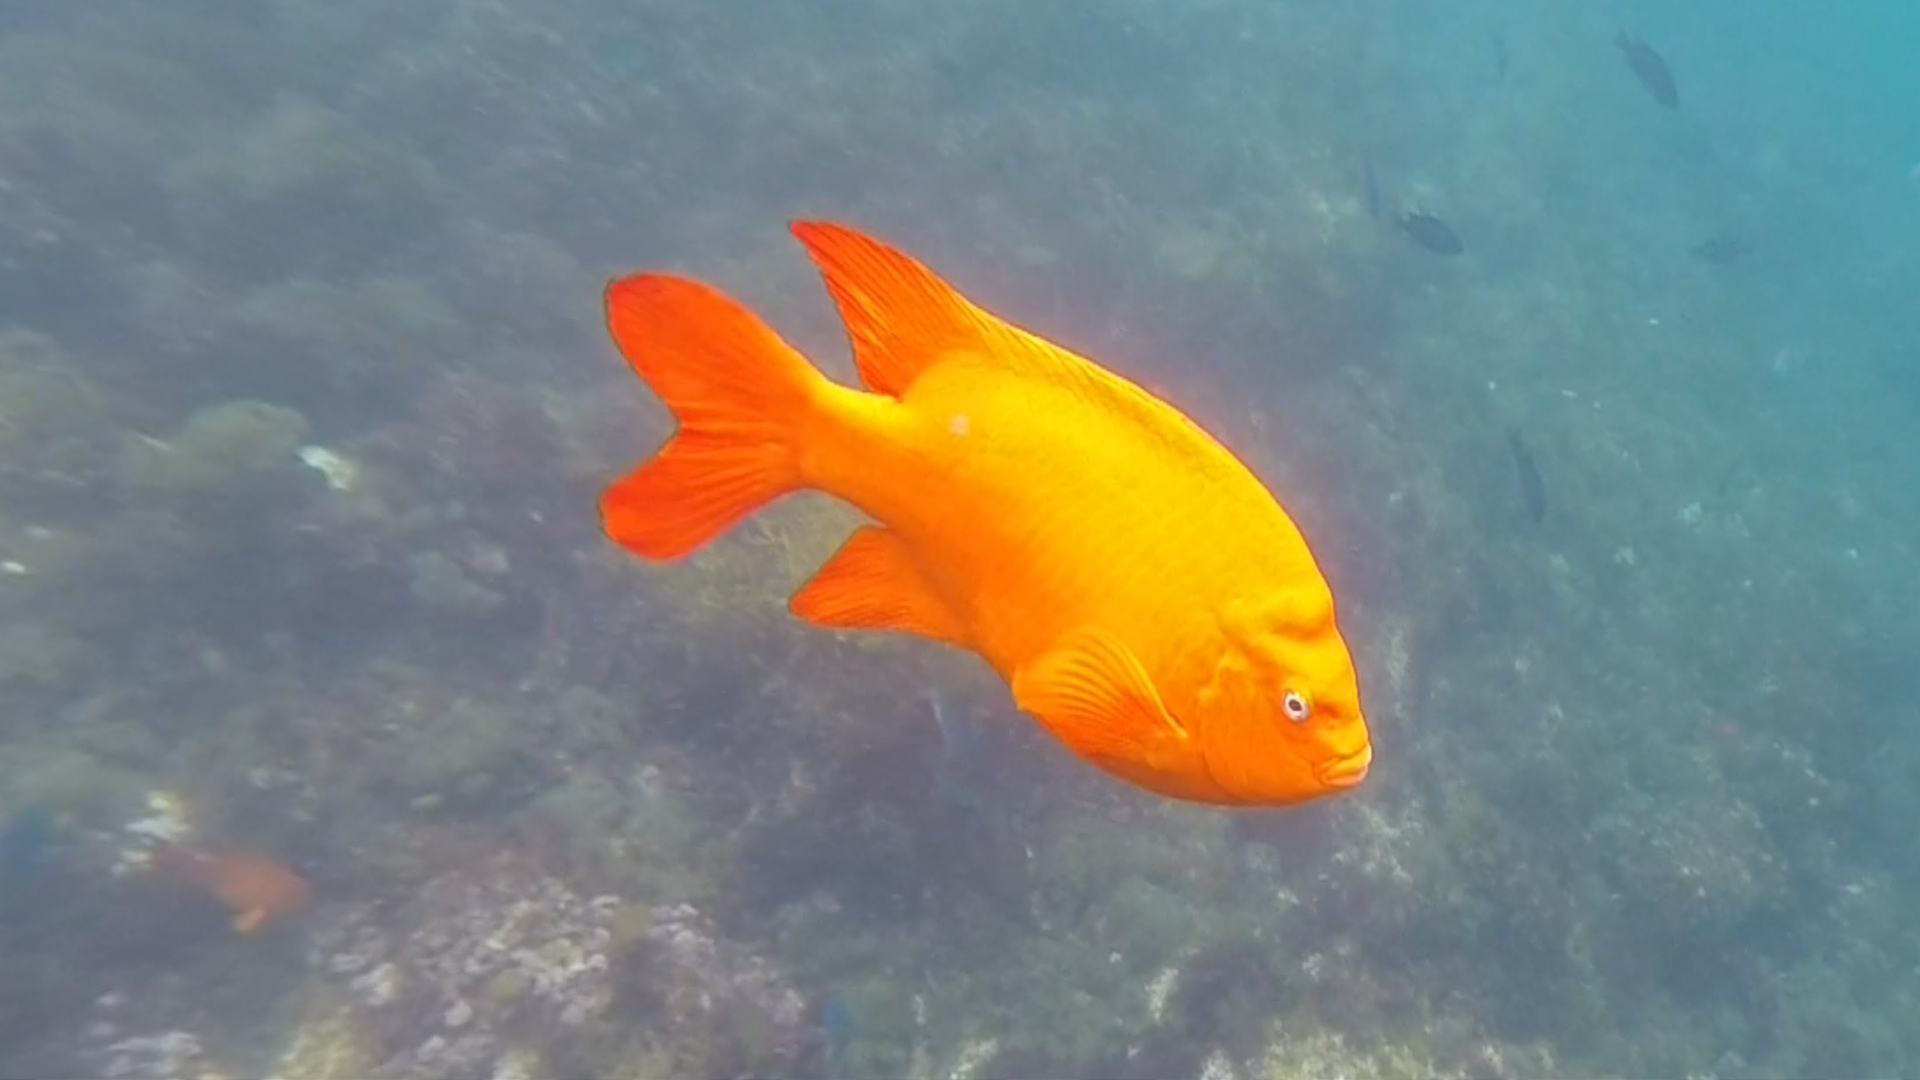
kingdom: Animalia
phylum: Chordata
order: Perciformes
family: Pomacentridae
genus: Hypsypops
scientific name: Hypsypops rubicundus
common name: Garibaldi
